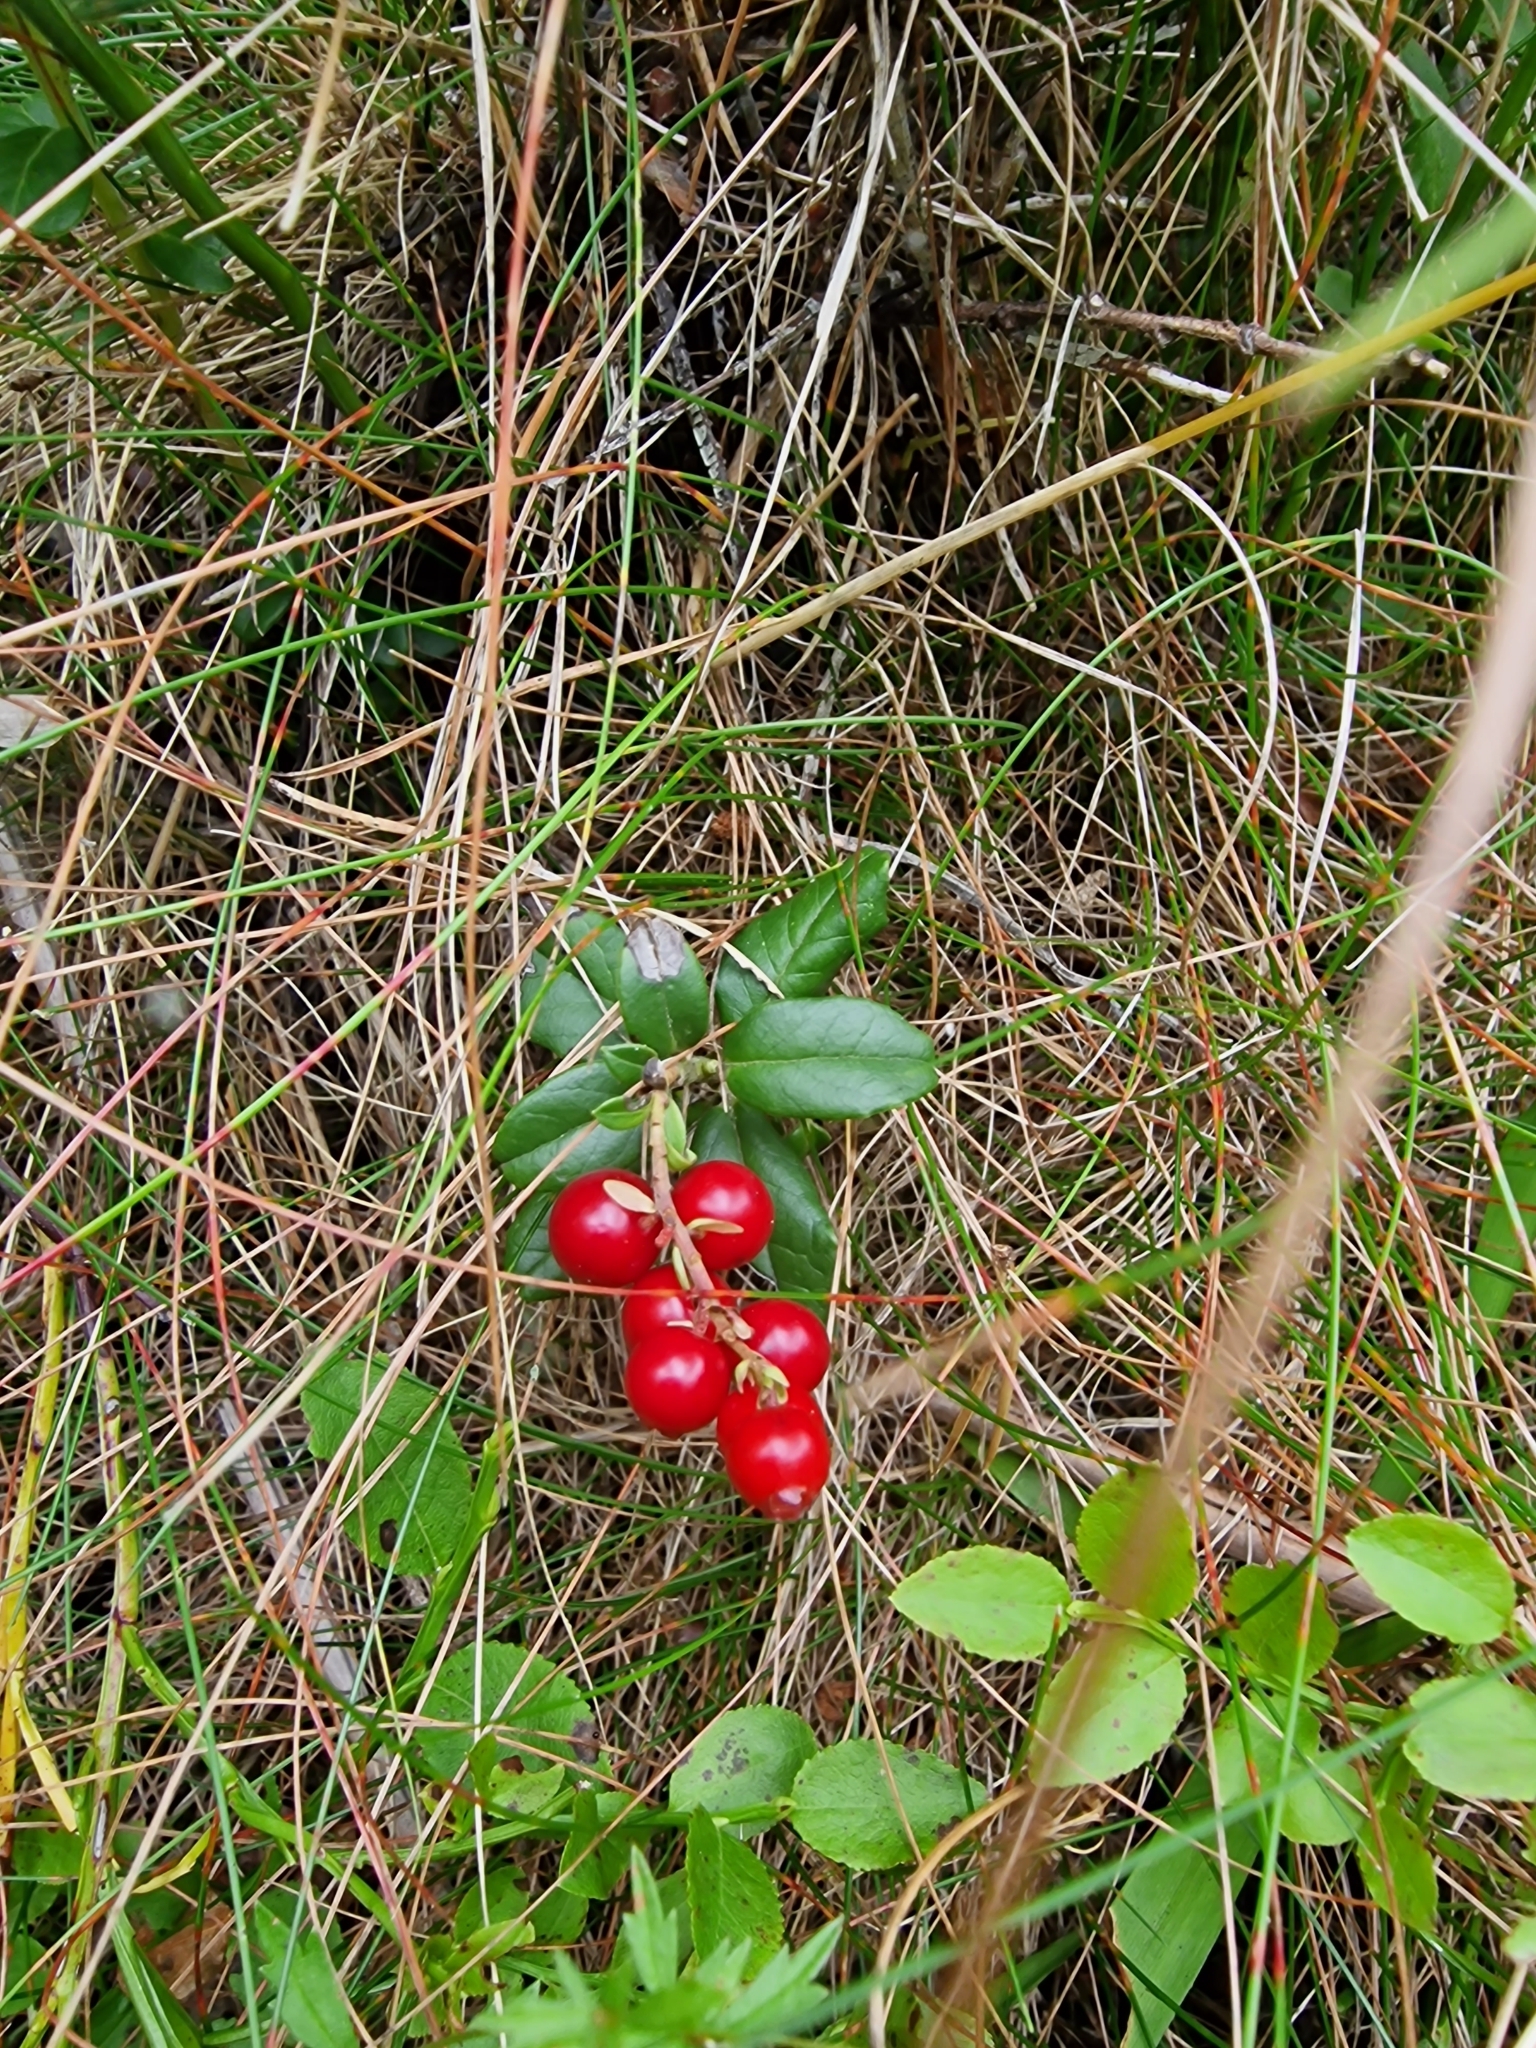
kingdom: Plantae
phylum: Tracheophyta
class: Magnoliopsida
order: Ericales
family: Ericaceae
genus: Vaccinium
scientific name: Vaccinium vitis-idaea
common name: Cowberry
